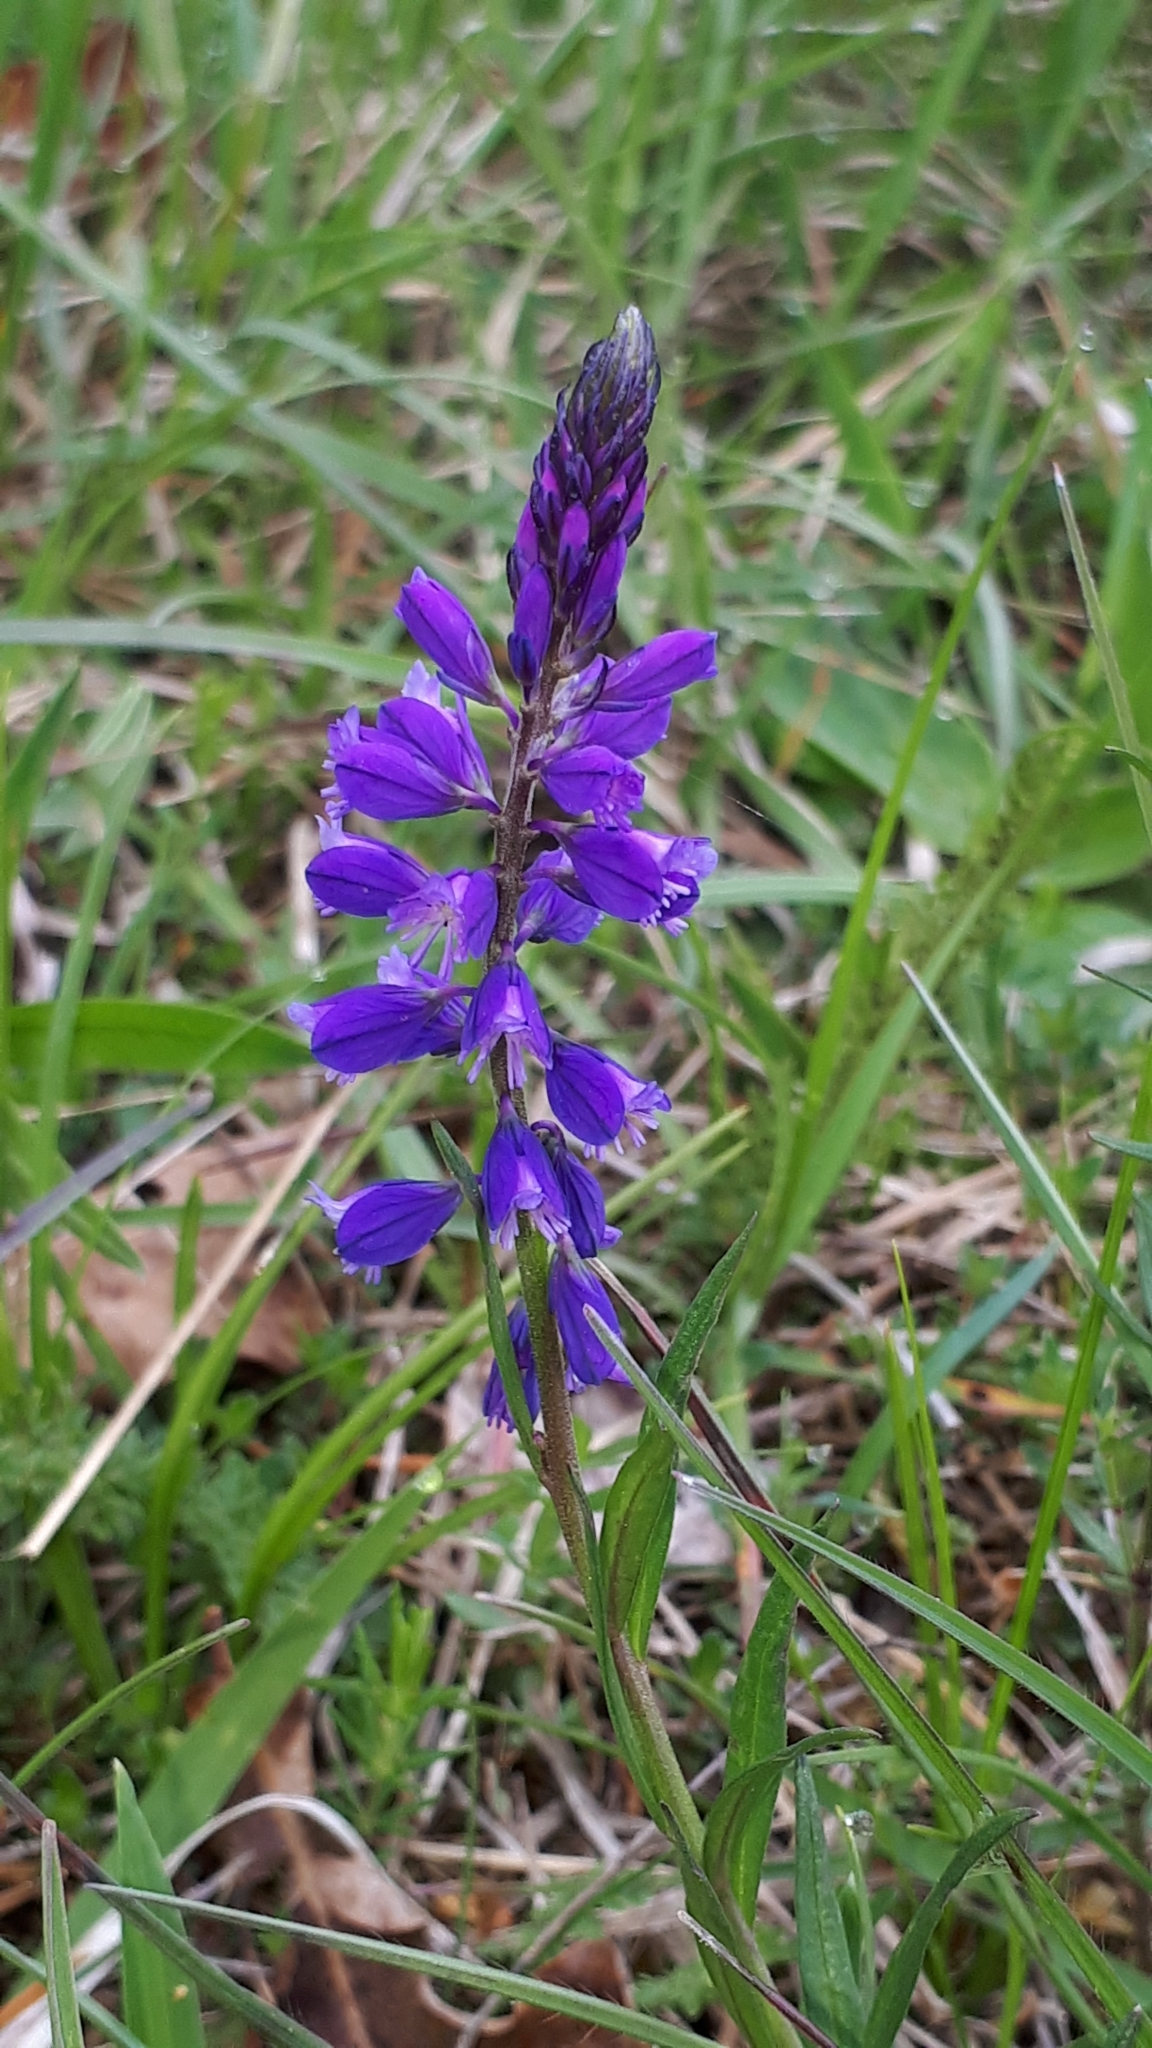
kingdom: Plantae
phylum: Tracheophyta
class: Magnoliopsida
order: Fabales
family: Polygalaceae
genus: Polygala
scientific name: Polygala comosa
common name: Tufted milkwort
